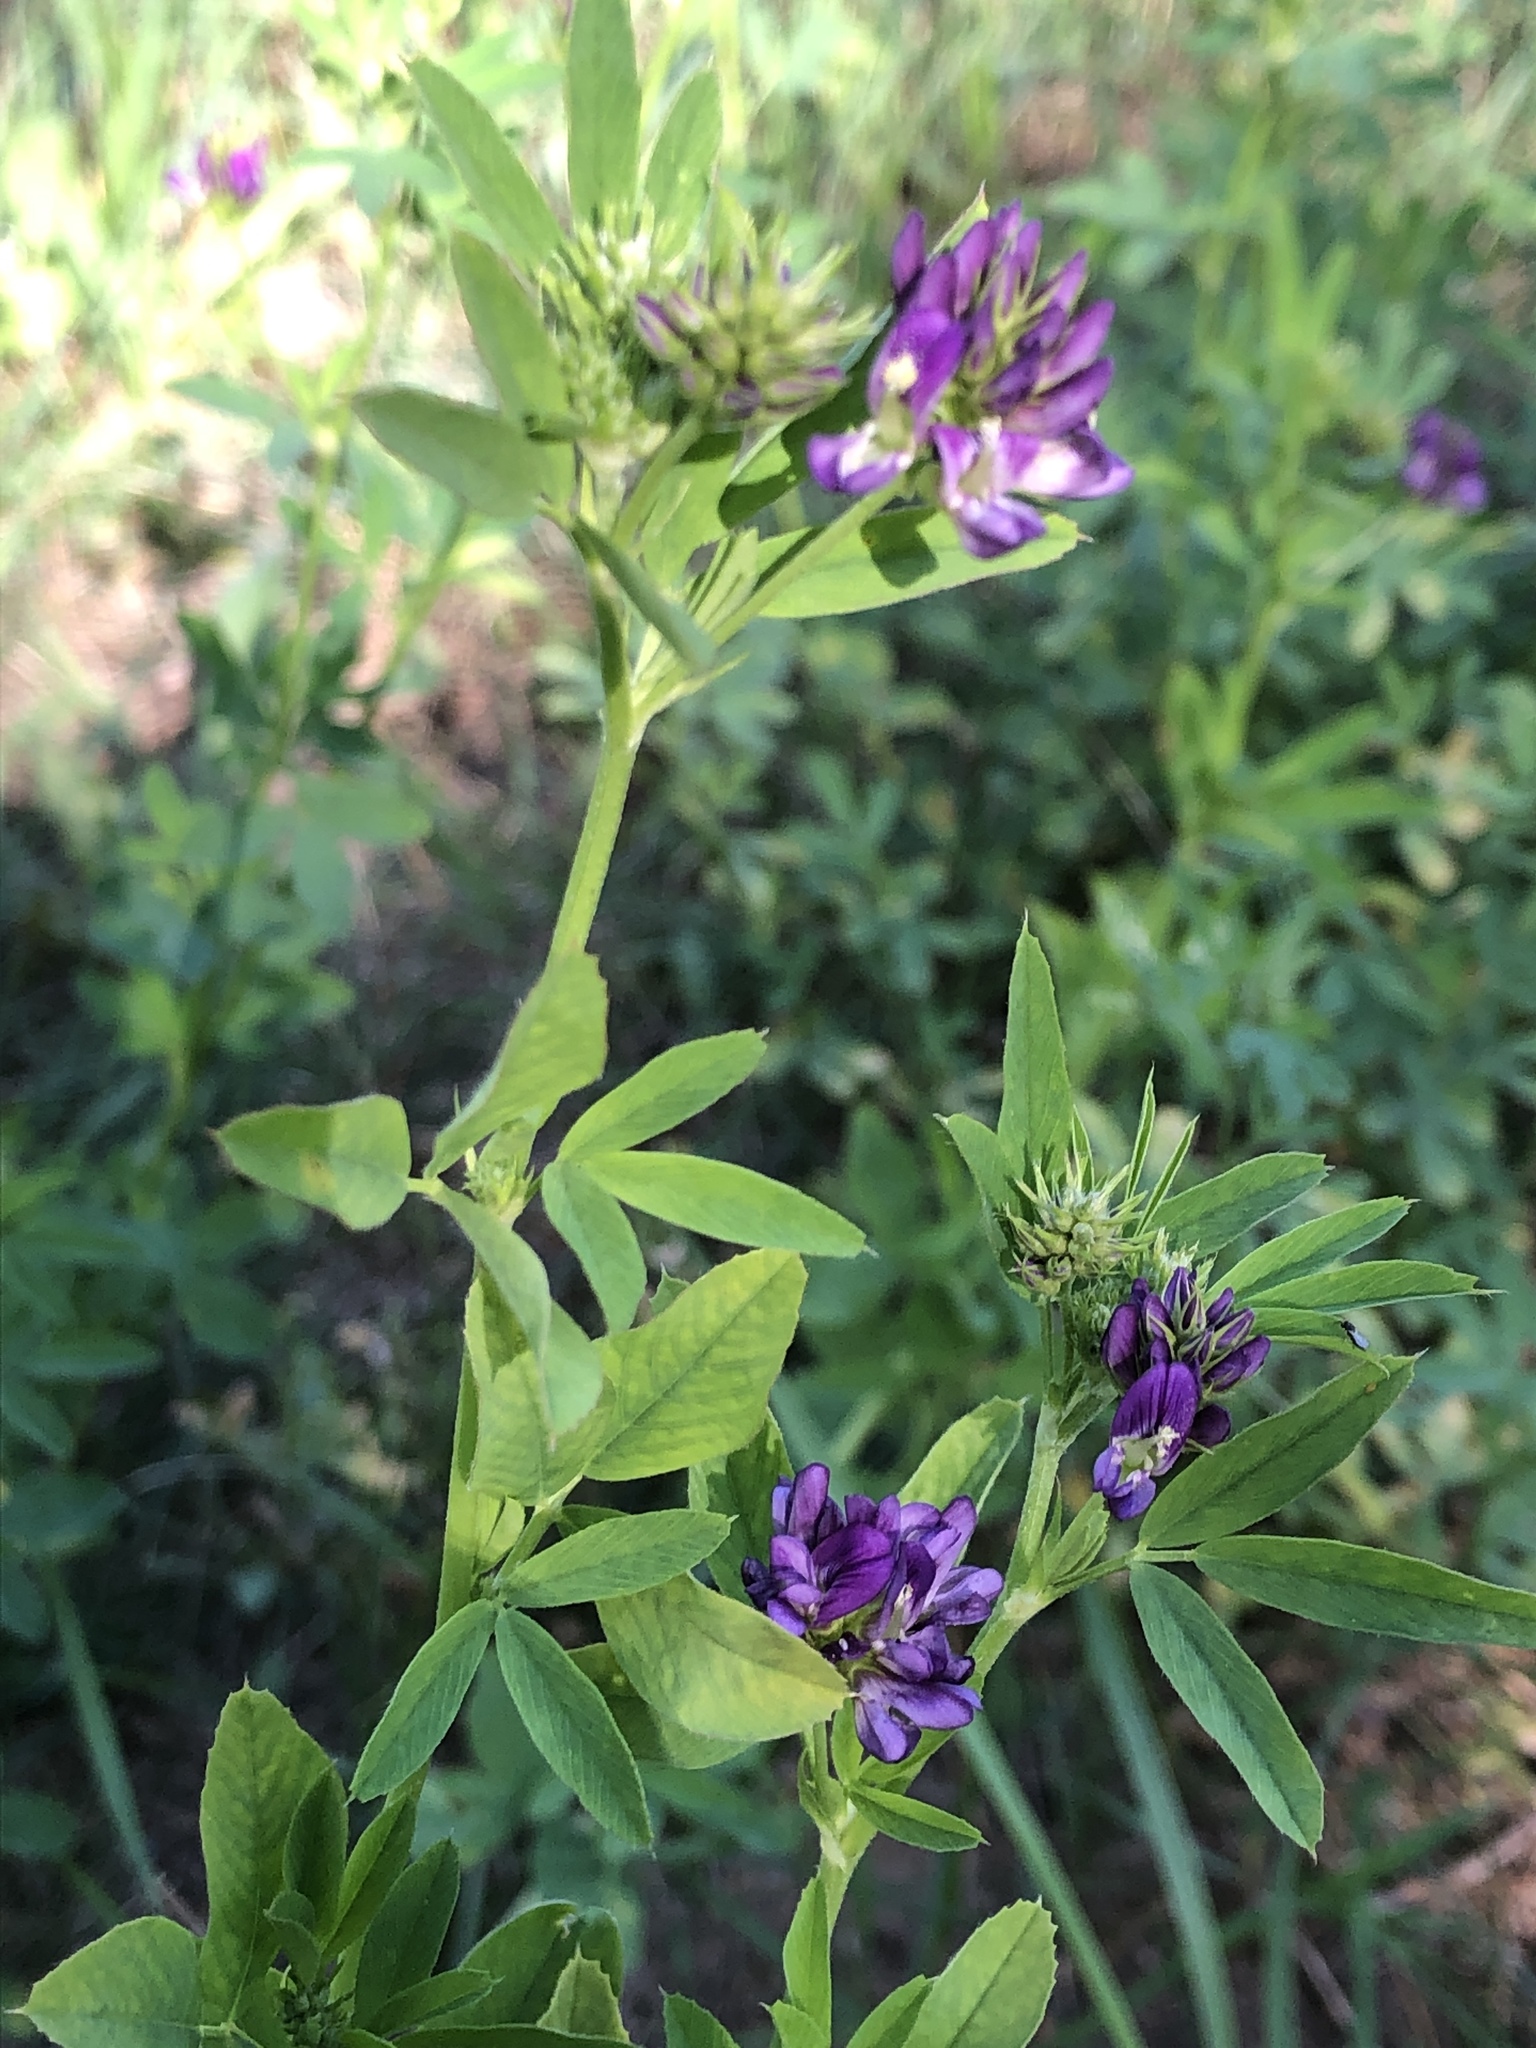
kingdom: Plantae
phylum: Tracheophyta
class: Magnoliopsida
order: Fabales
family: Fabaceae
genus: Medicago
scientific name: Medicago sativa
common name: Alfalfa
